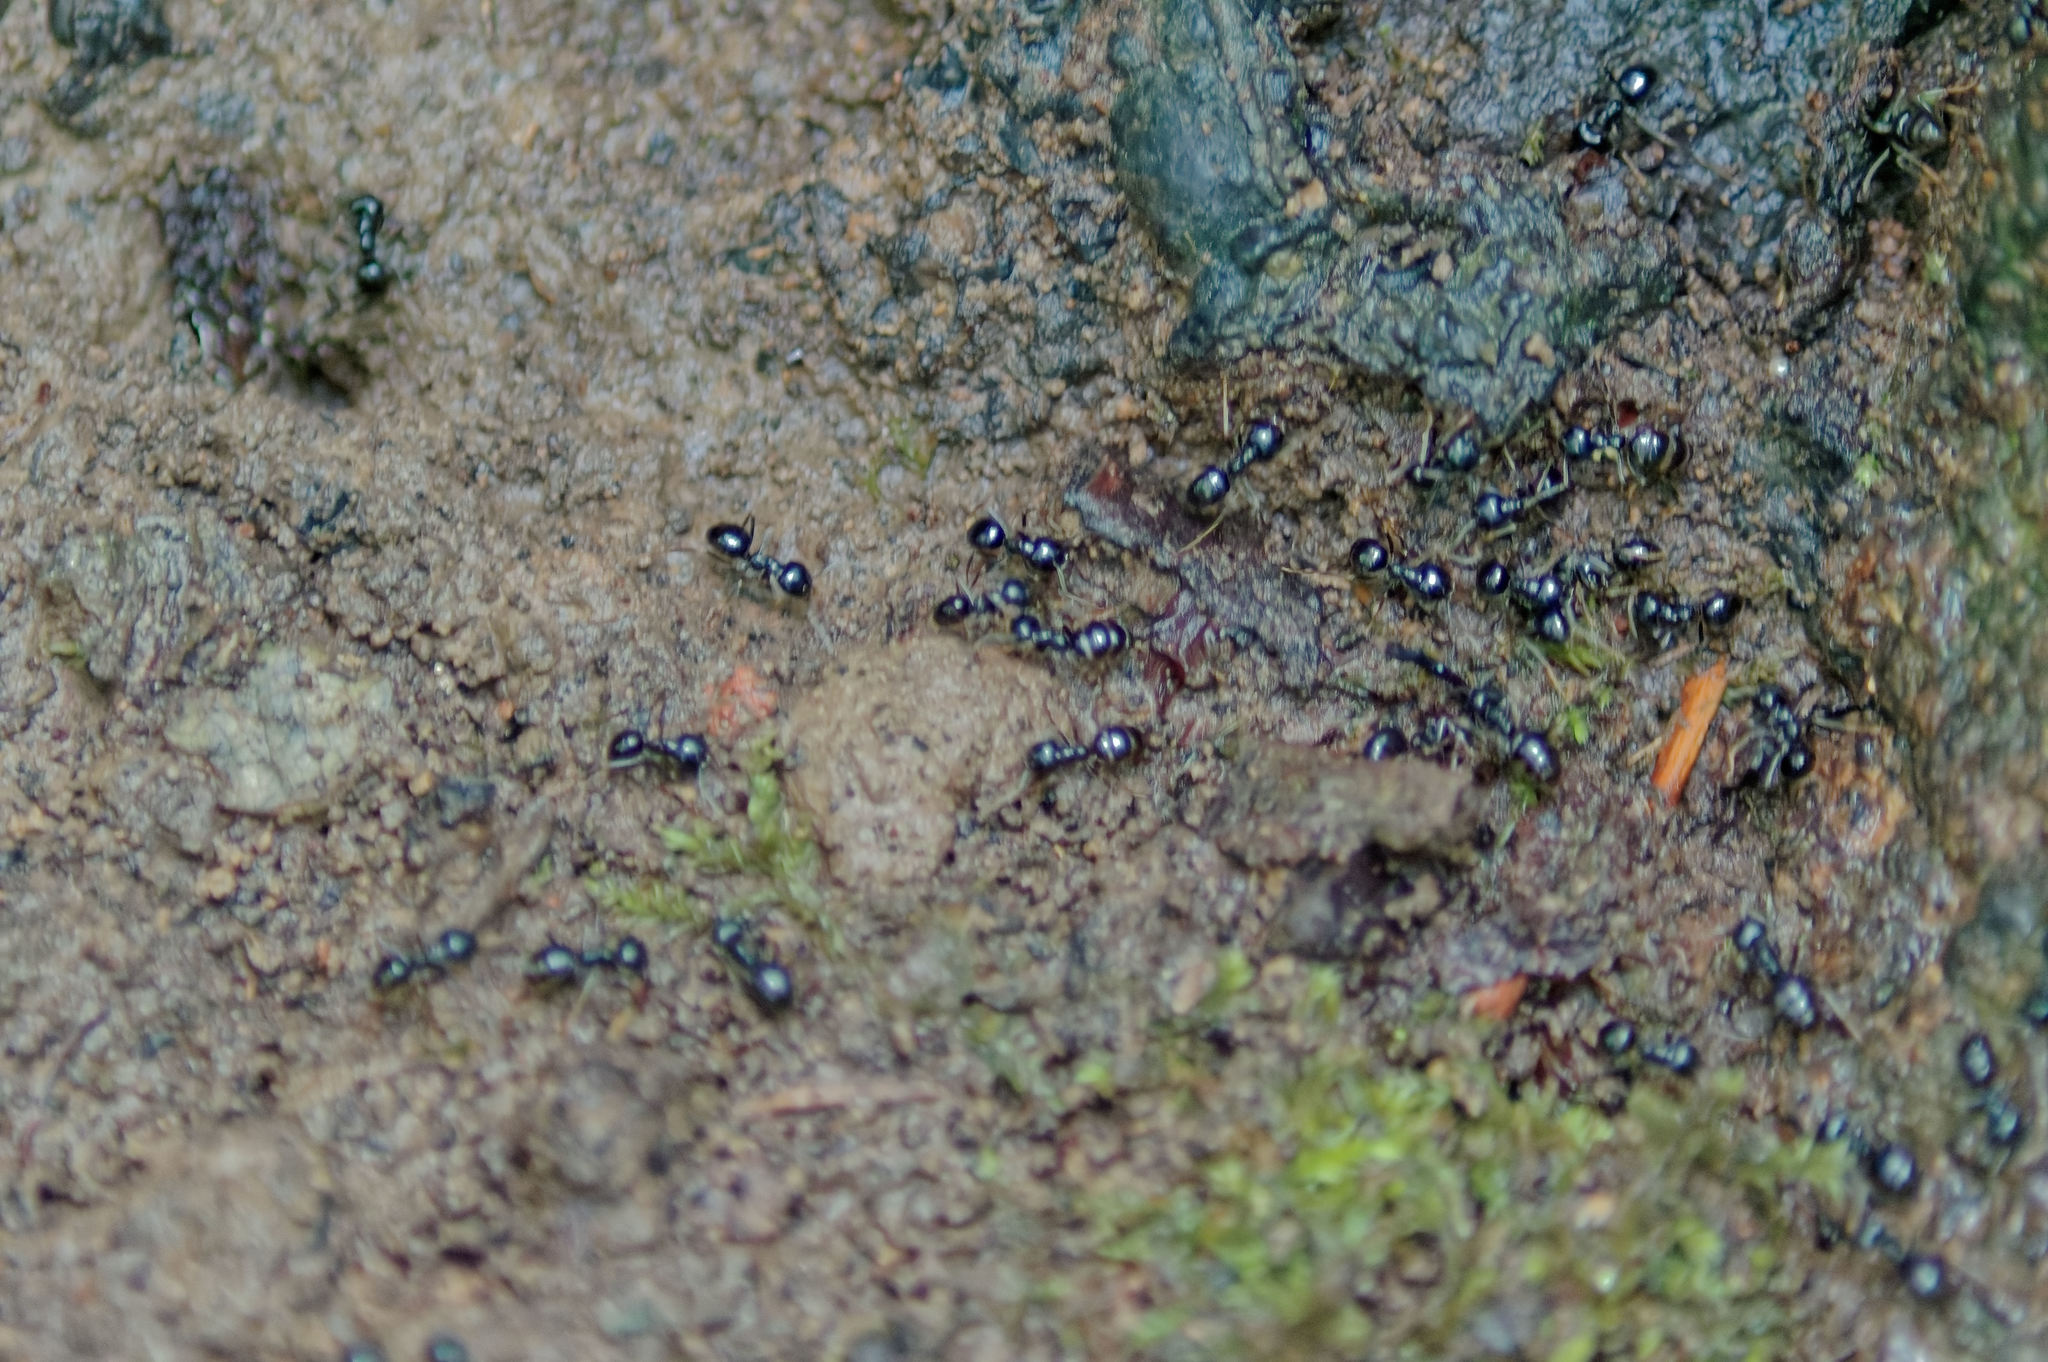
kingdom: Animalia
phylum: Arthropoda
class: Insecta
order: Hymenoptera
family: Formicidae
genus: Lasius
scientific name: Lasius fuliginosus
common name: Jet ant
